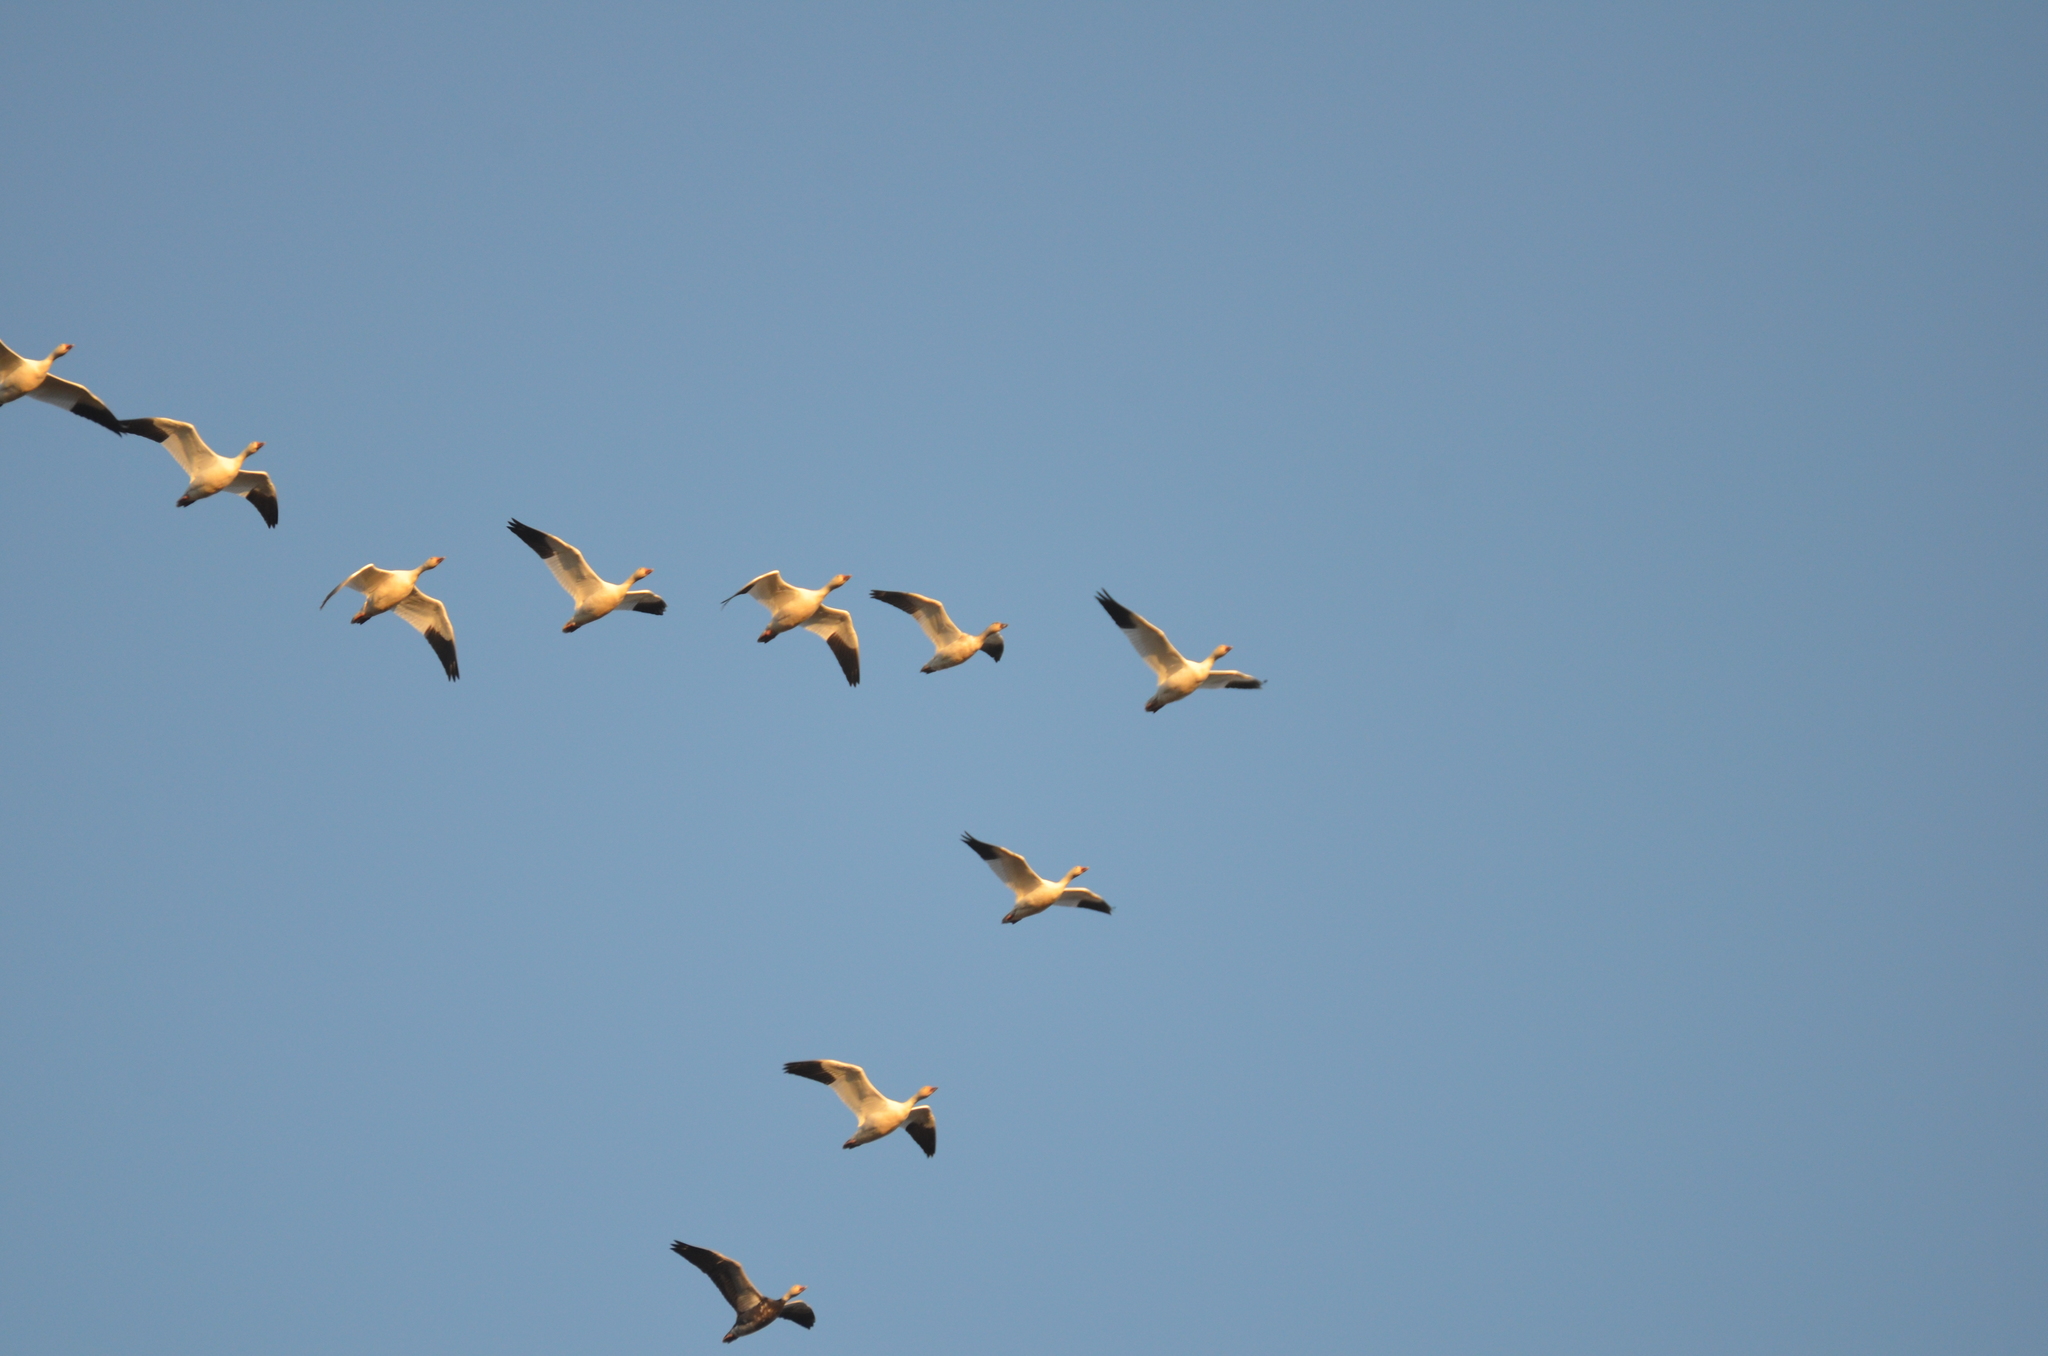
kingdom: Animalia
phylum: Chordata
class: Aves
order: Anseriformes
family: Anatidae
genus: Anser
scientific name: Anser caerulescens
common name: Snow goose
